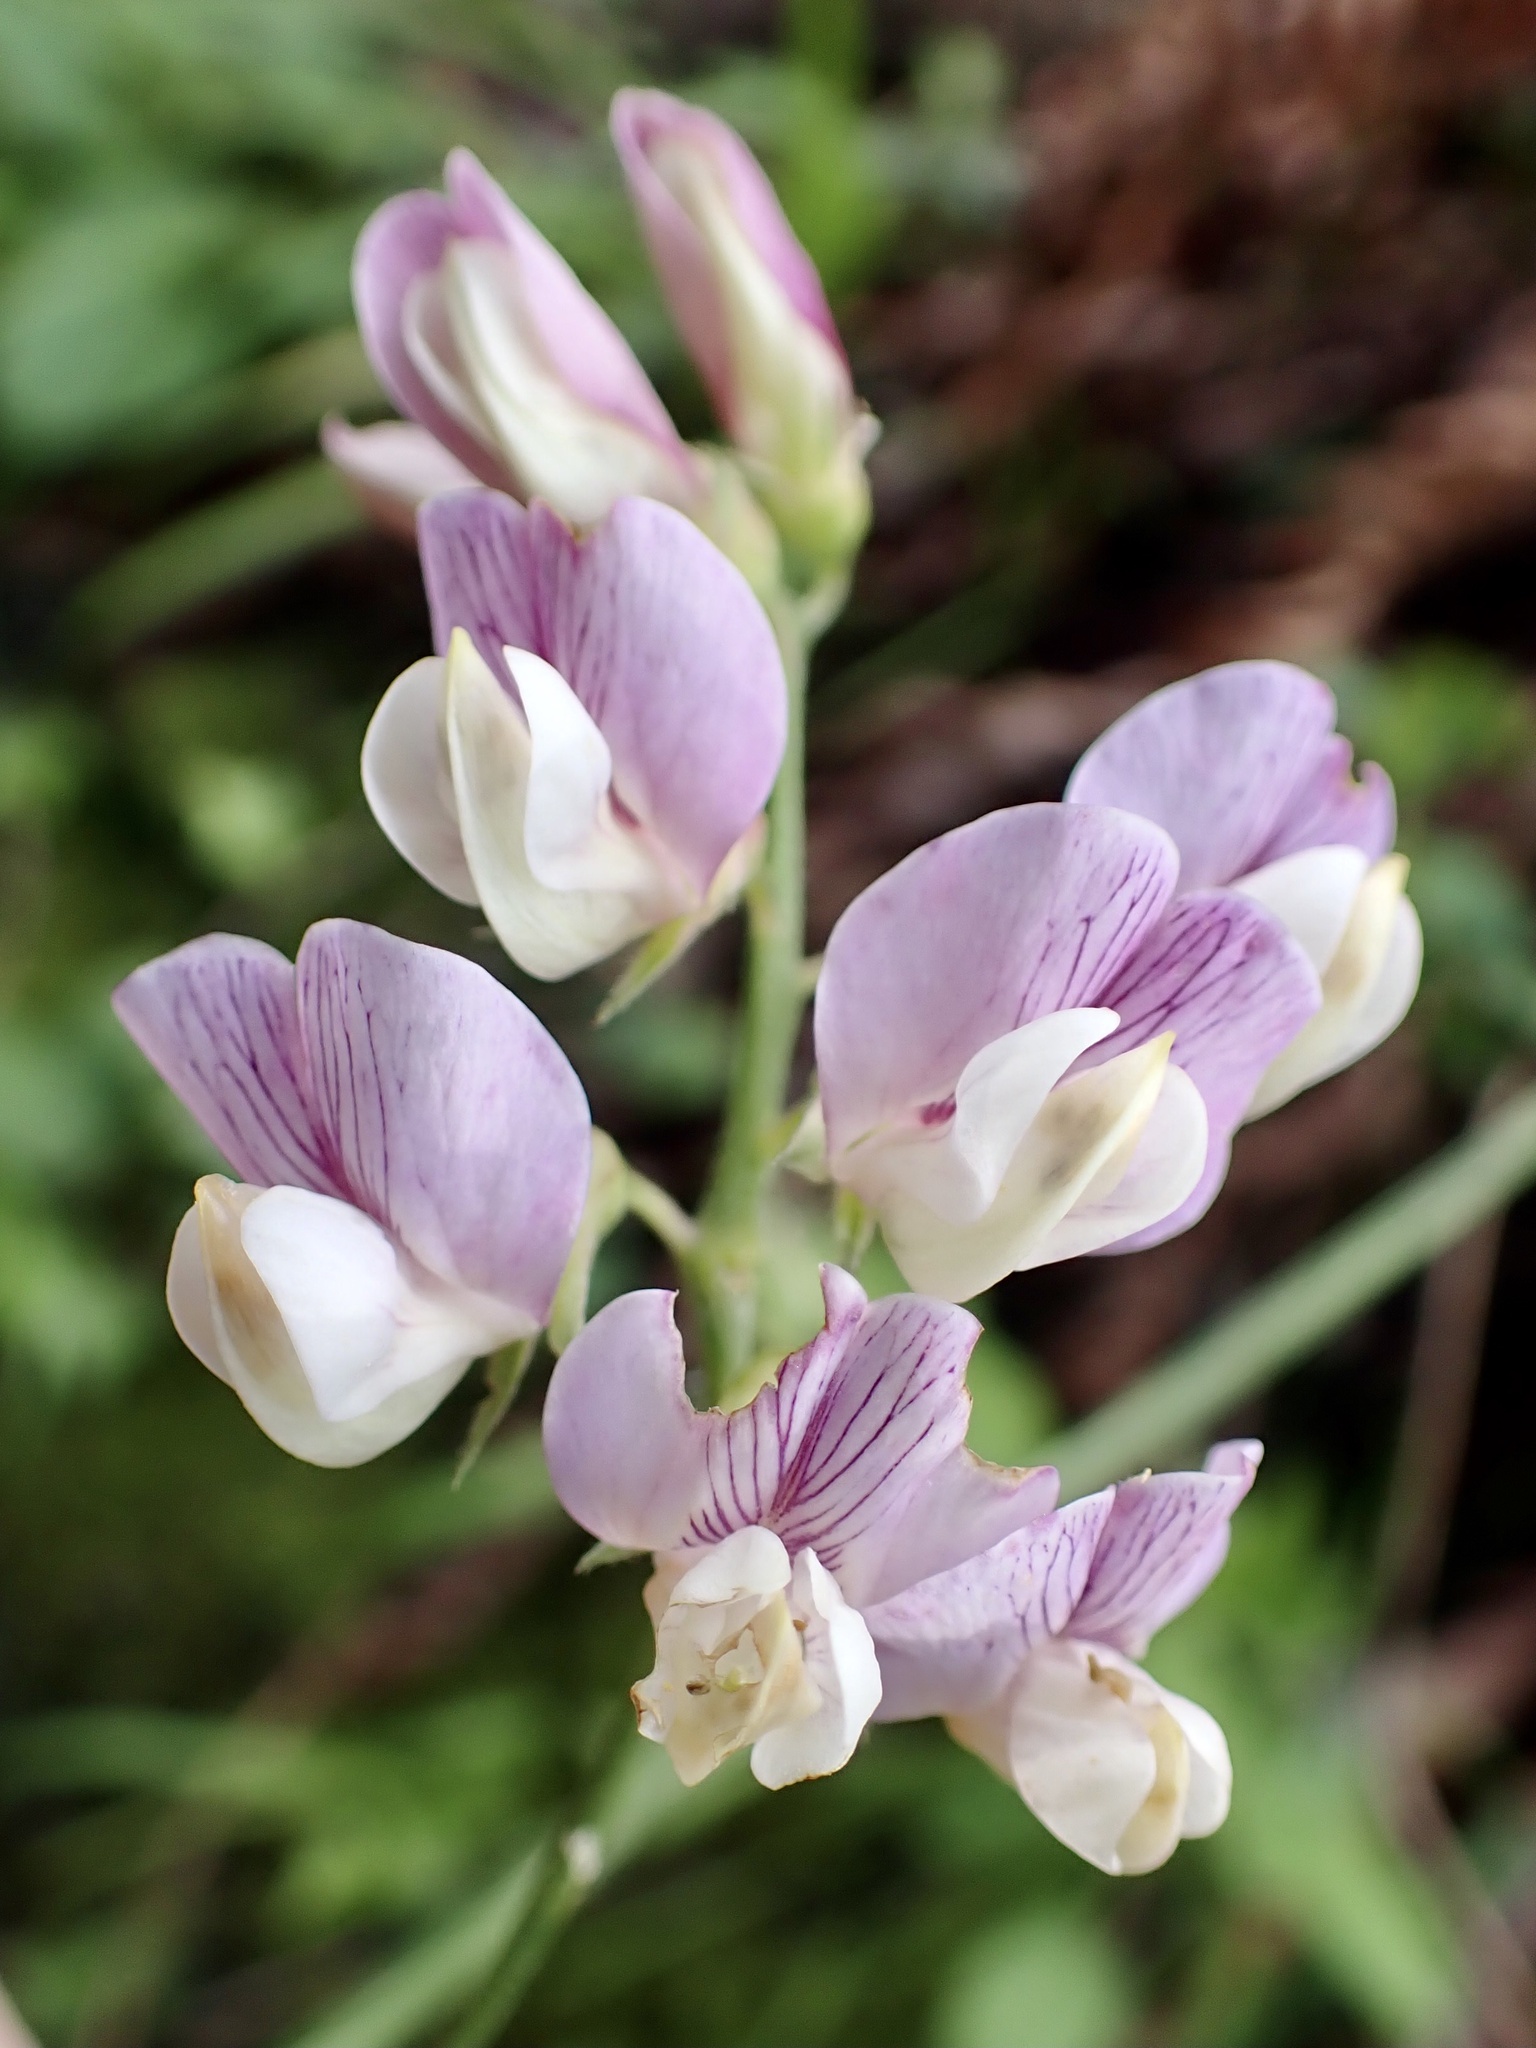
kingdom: Plantae
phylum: Tracheophyta
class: Magnoliopsida
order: Fabales
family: Fabaceae
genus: Lathyrus
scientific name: Lathyrus vestitus
